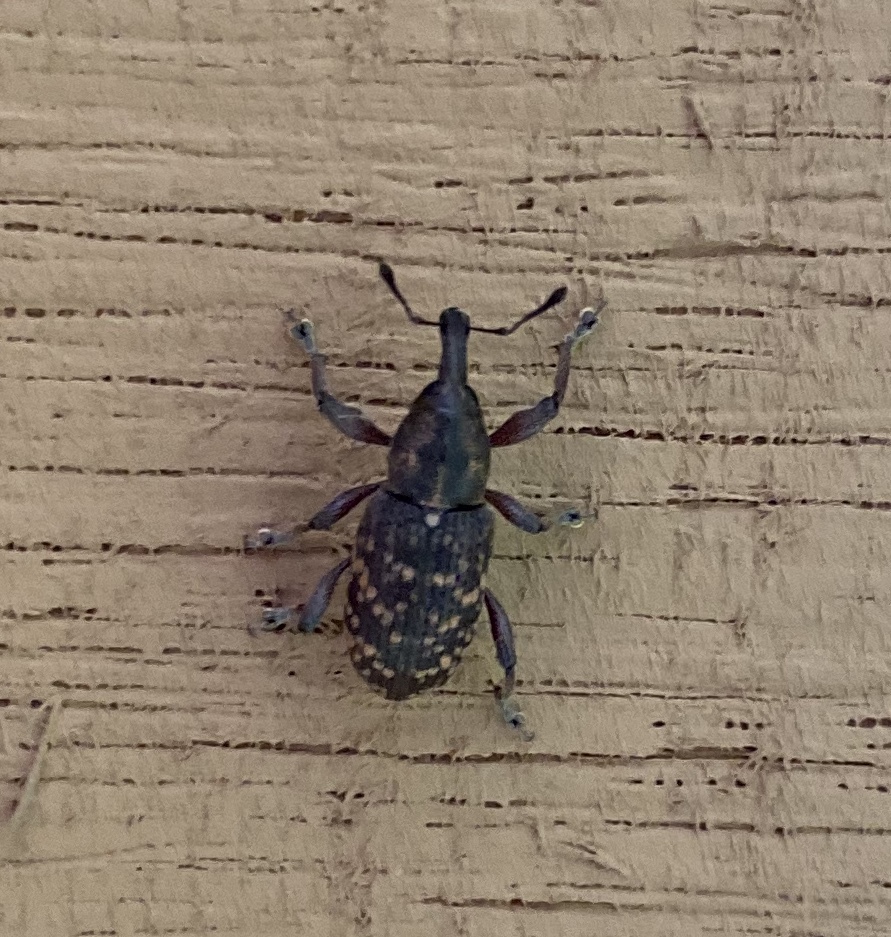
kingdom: Animalia
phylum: Arthropoda
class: Insecta
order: Coleoptera
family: Curculionidae
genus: Hylobius
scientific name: Hylobius pales
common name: Pales weevil
